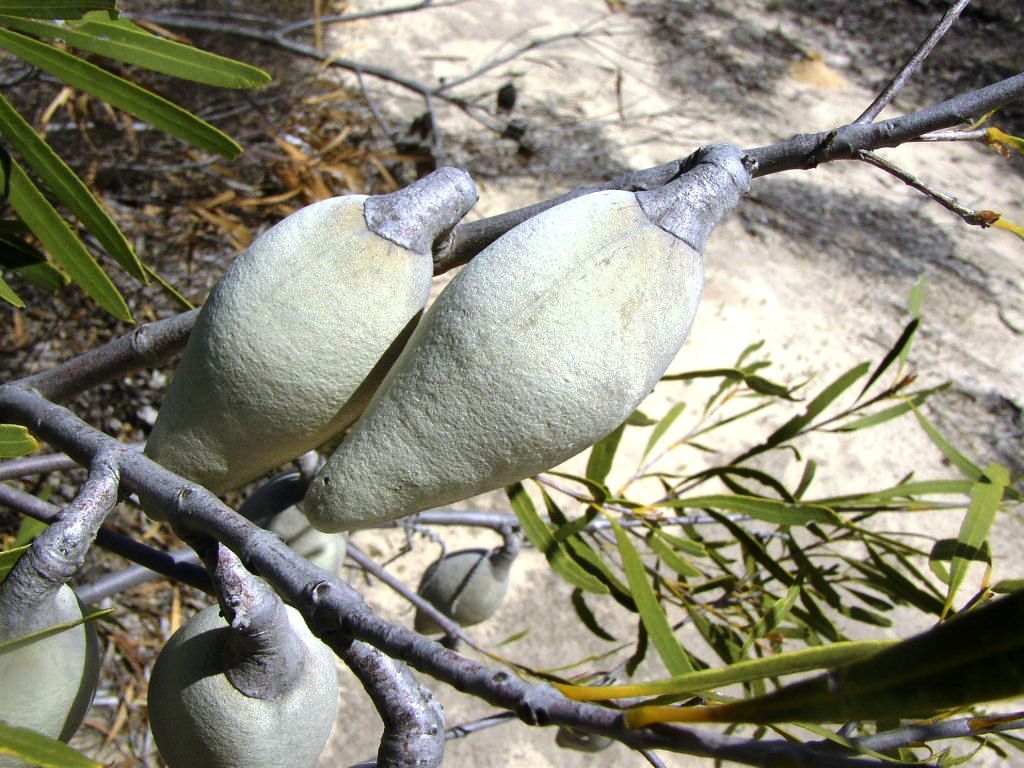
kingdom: Plantae
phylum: Tracheophyta
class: Magnoliopsida
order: Proteales
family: Proteaceae
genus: Xylomelum
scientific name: Xylomelum angustifolium
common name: Sandplain woody-pear
